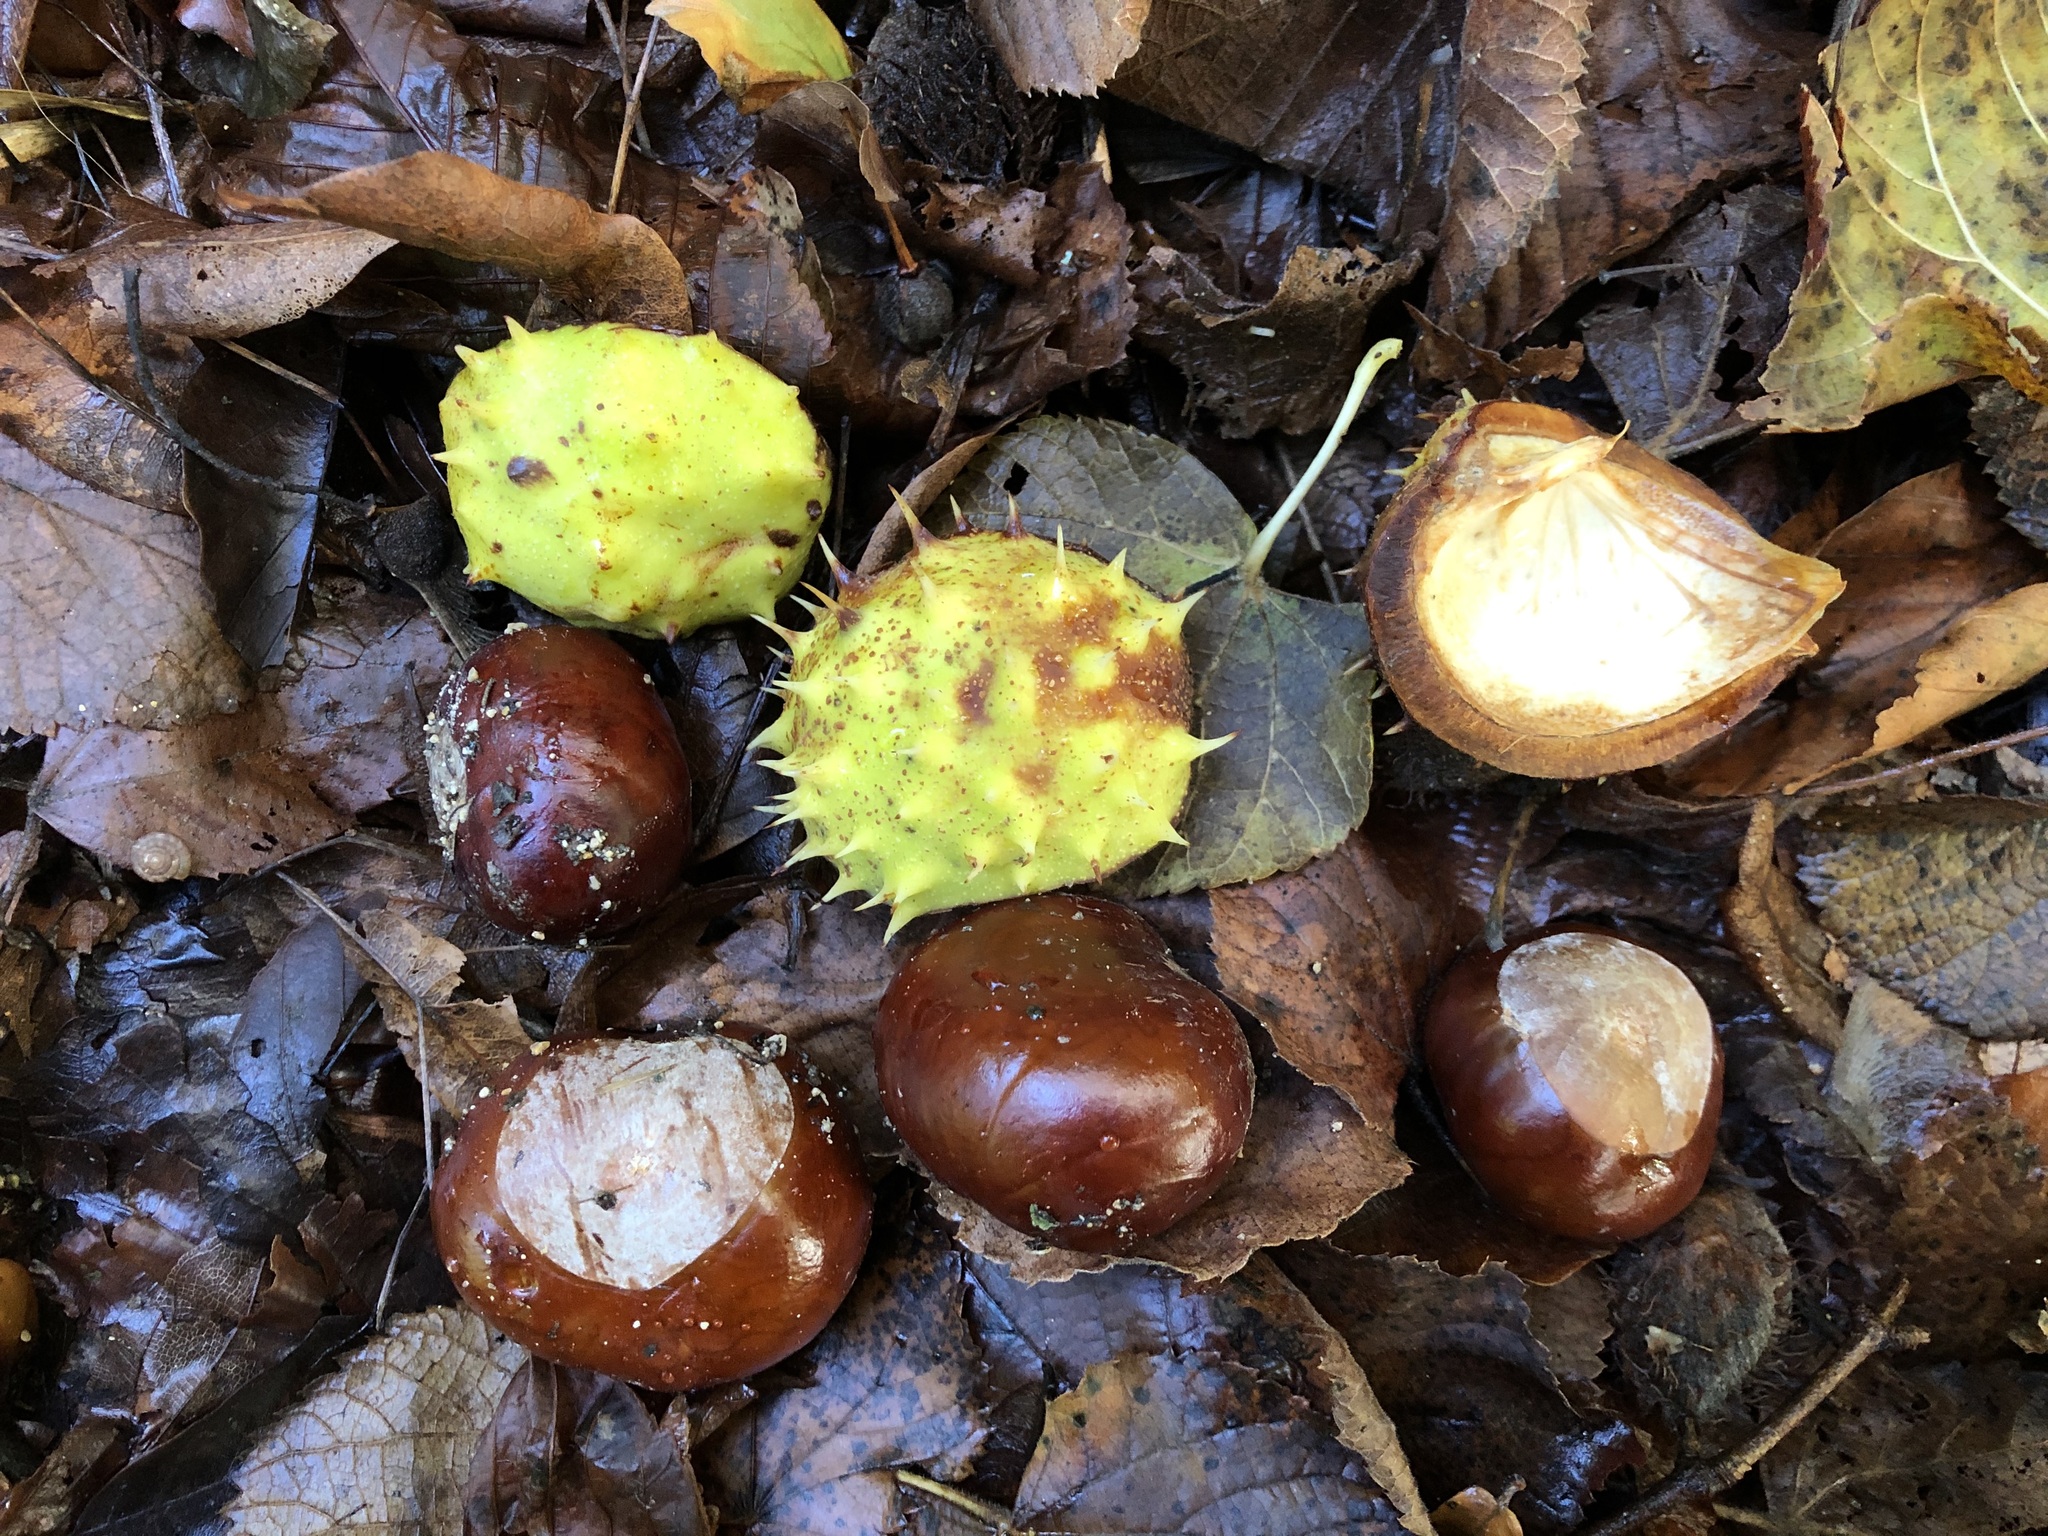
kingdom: Plantae
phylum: Tracheophyta
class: Magnoliopsida
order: Sapindales
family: Sapindaceae
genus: Aesculus
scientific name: Aesculus hippocastanum
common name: Horse-chestnut
